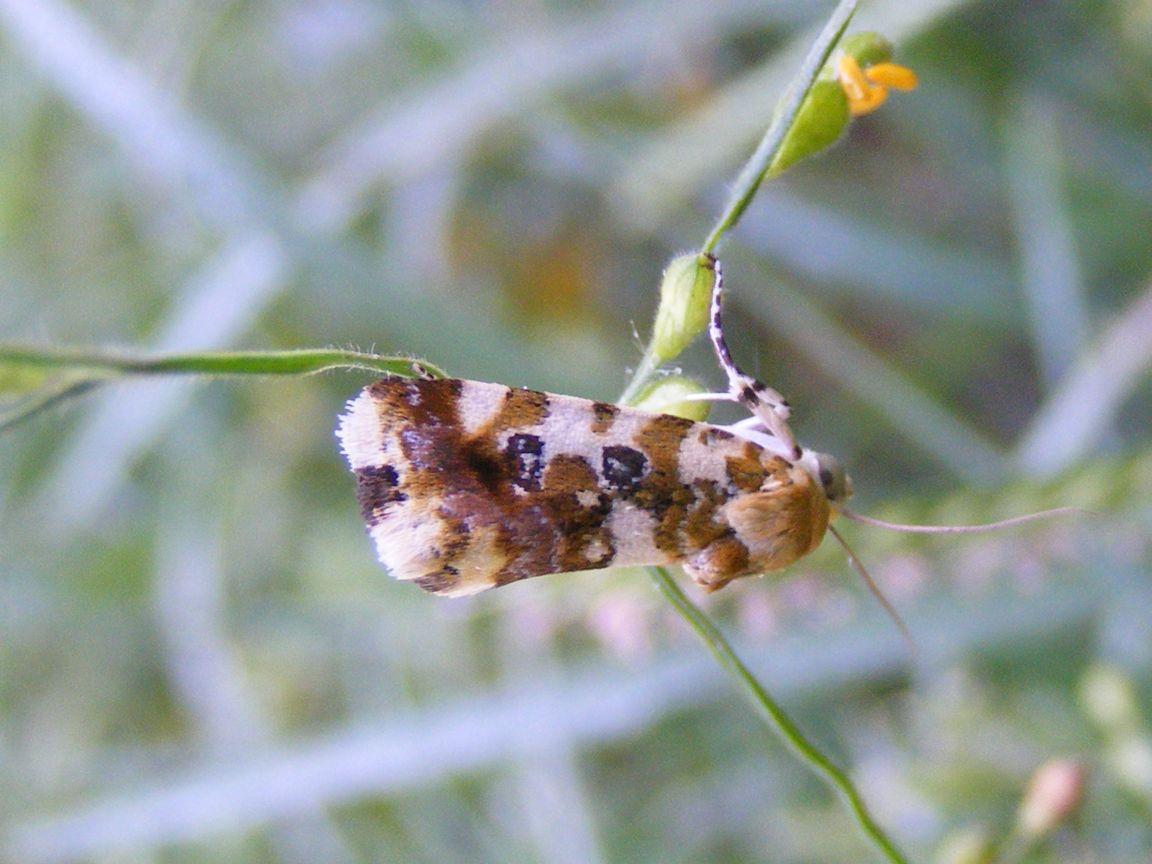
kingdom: Animalia
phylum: Arthropoda
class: Insecta
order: Lepidoptera
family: Noctuidae
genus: Acontia
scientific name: Acontia zelleri
